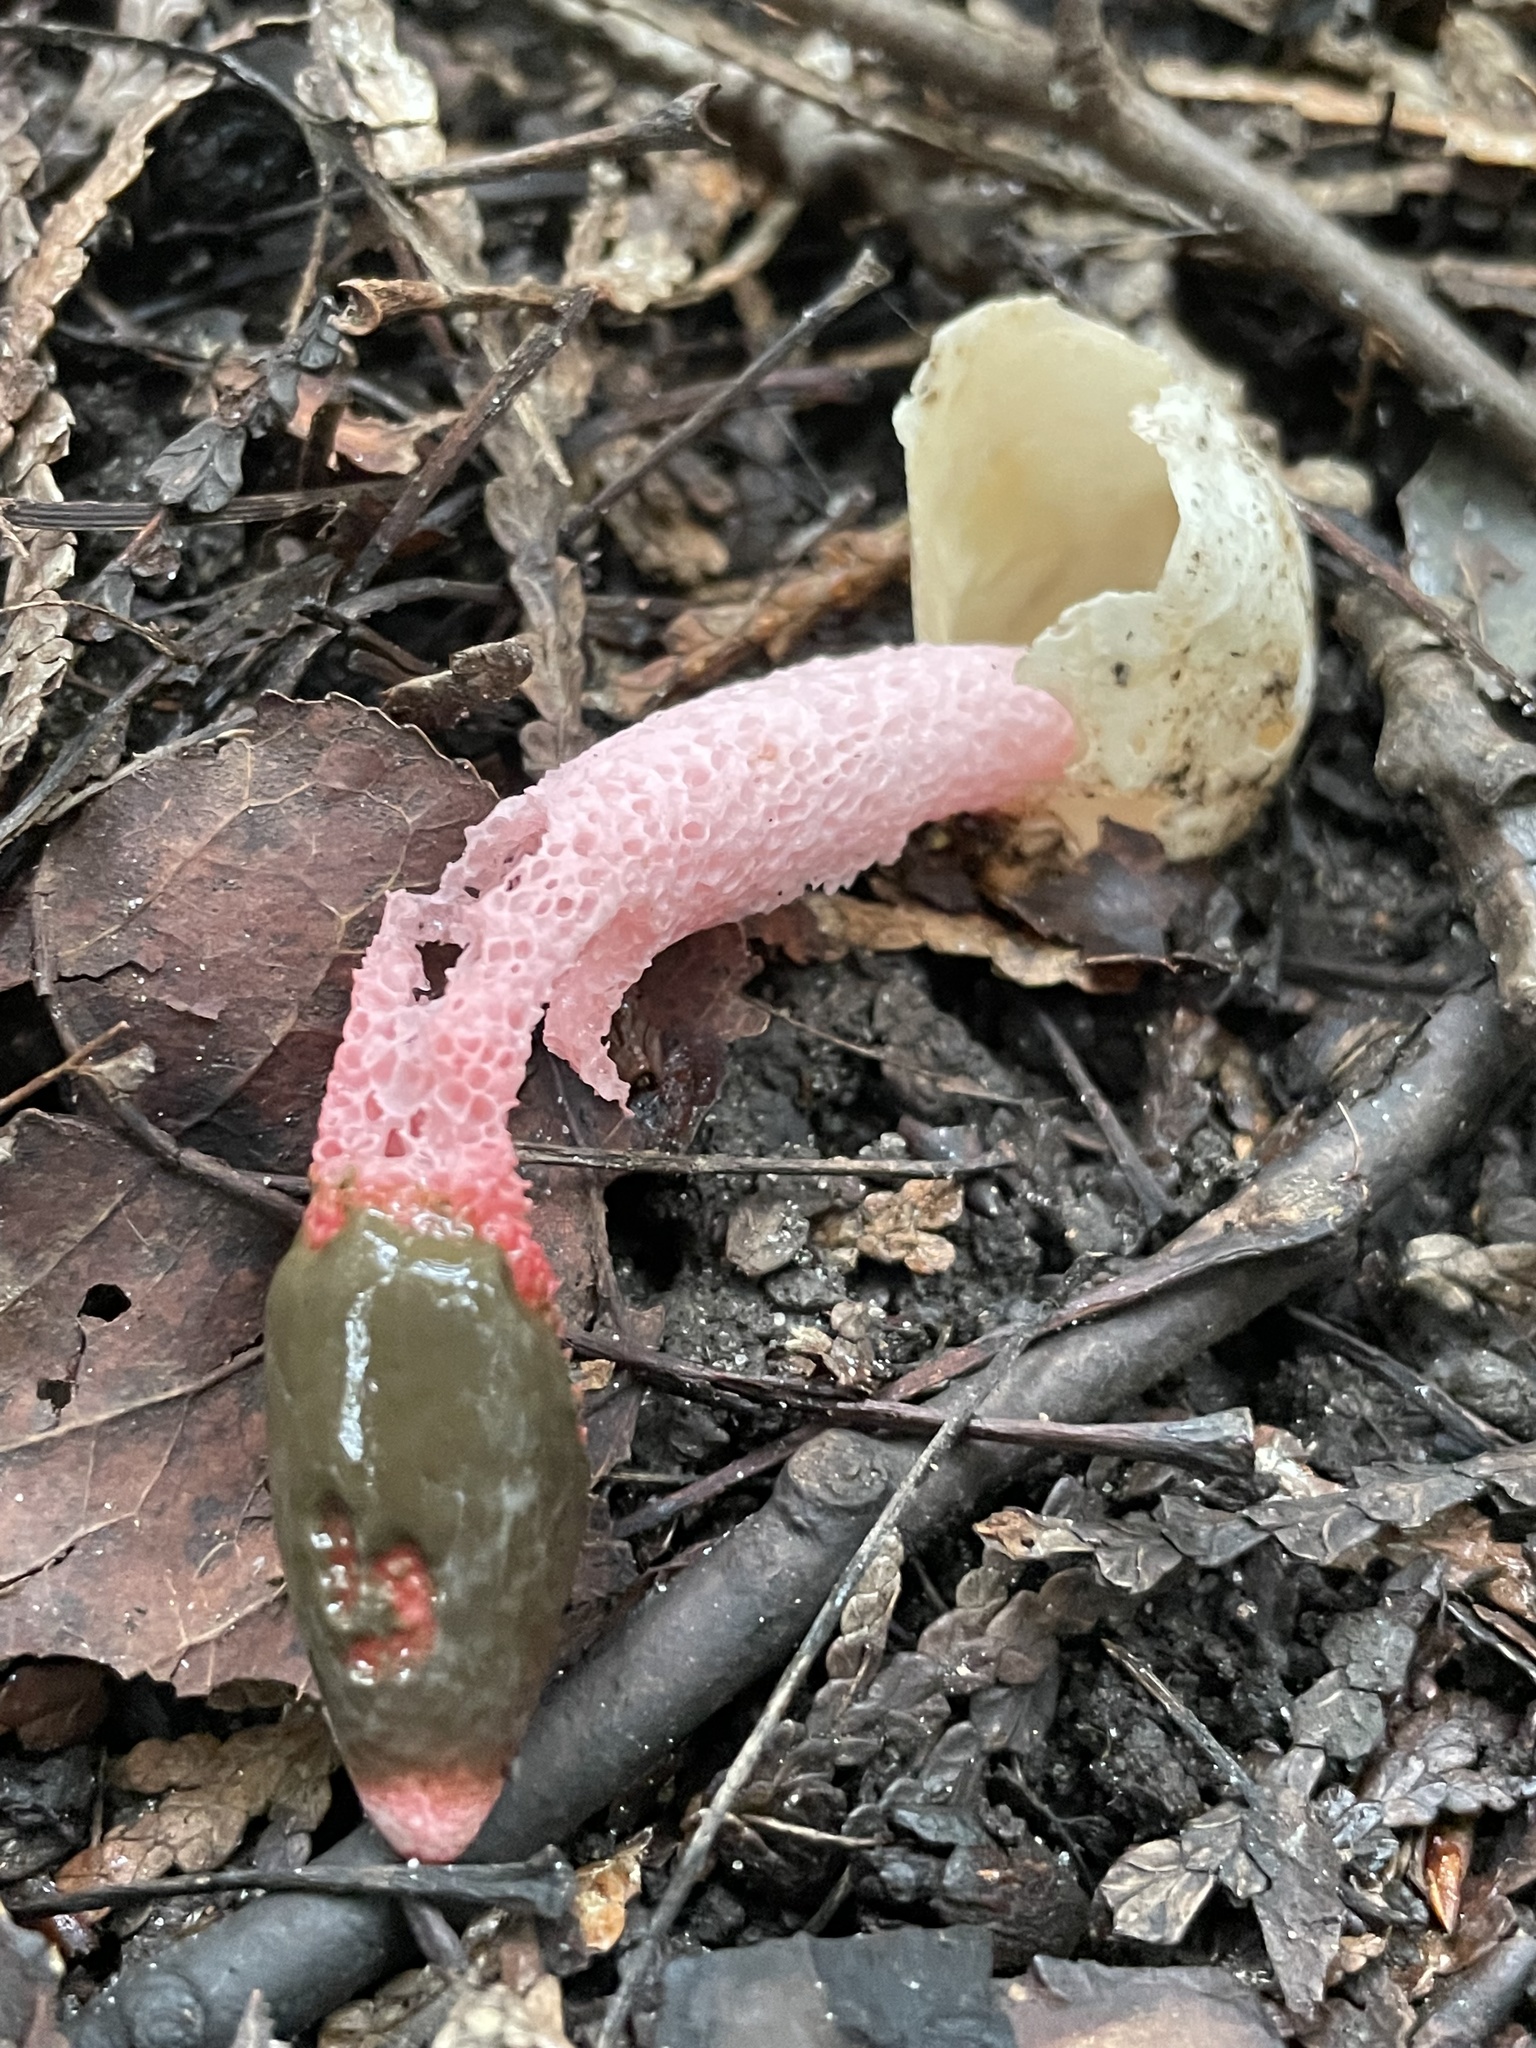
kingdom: Fungi
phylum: Basidiomycota
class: Agaricomycetes
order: Phallales
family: Phallaceae
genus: Mutinus
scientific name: Mutinus ravenelii
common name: Red stinkhorn
